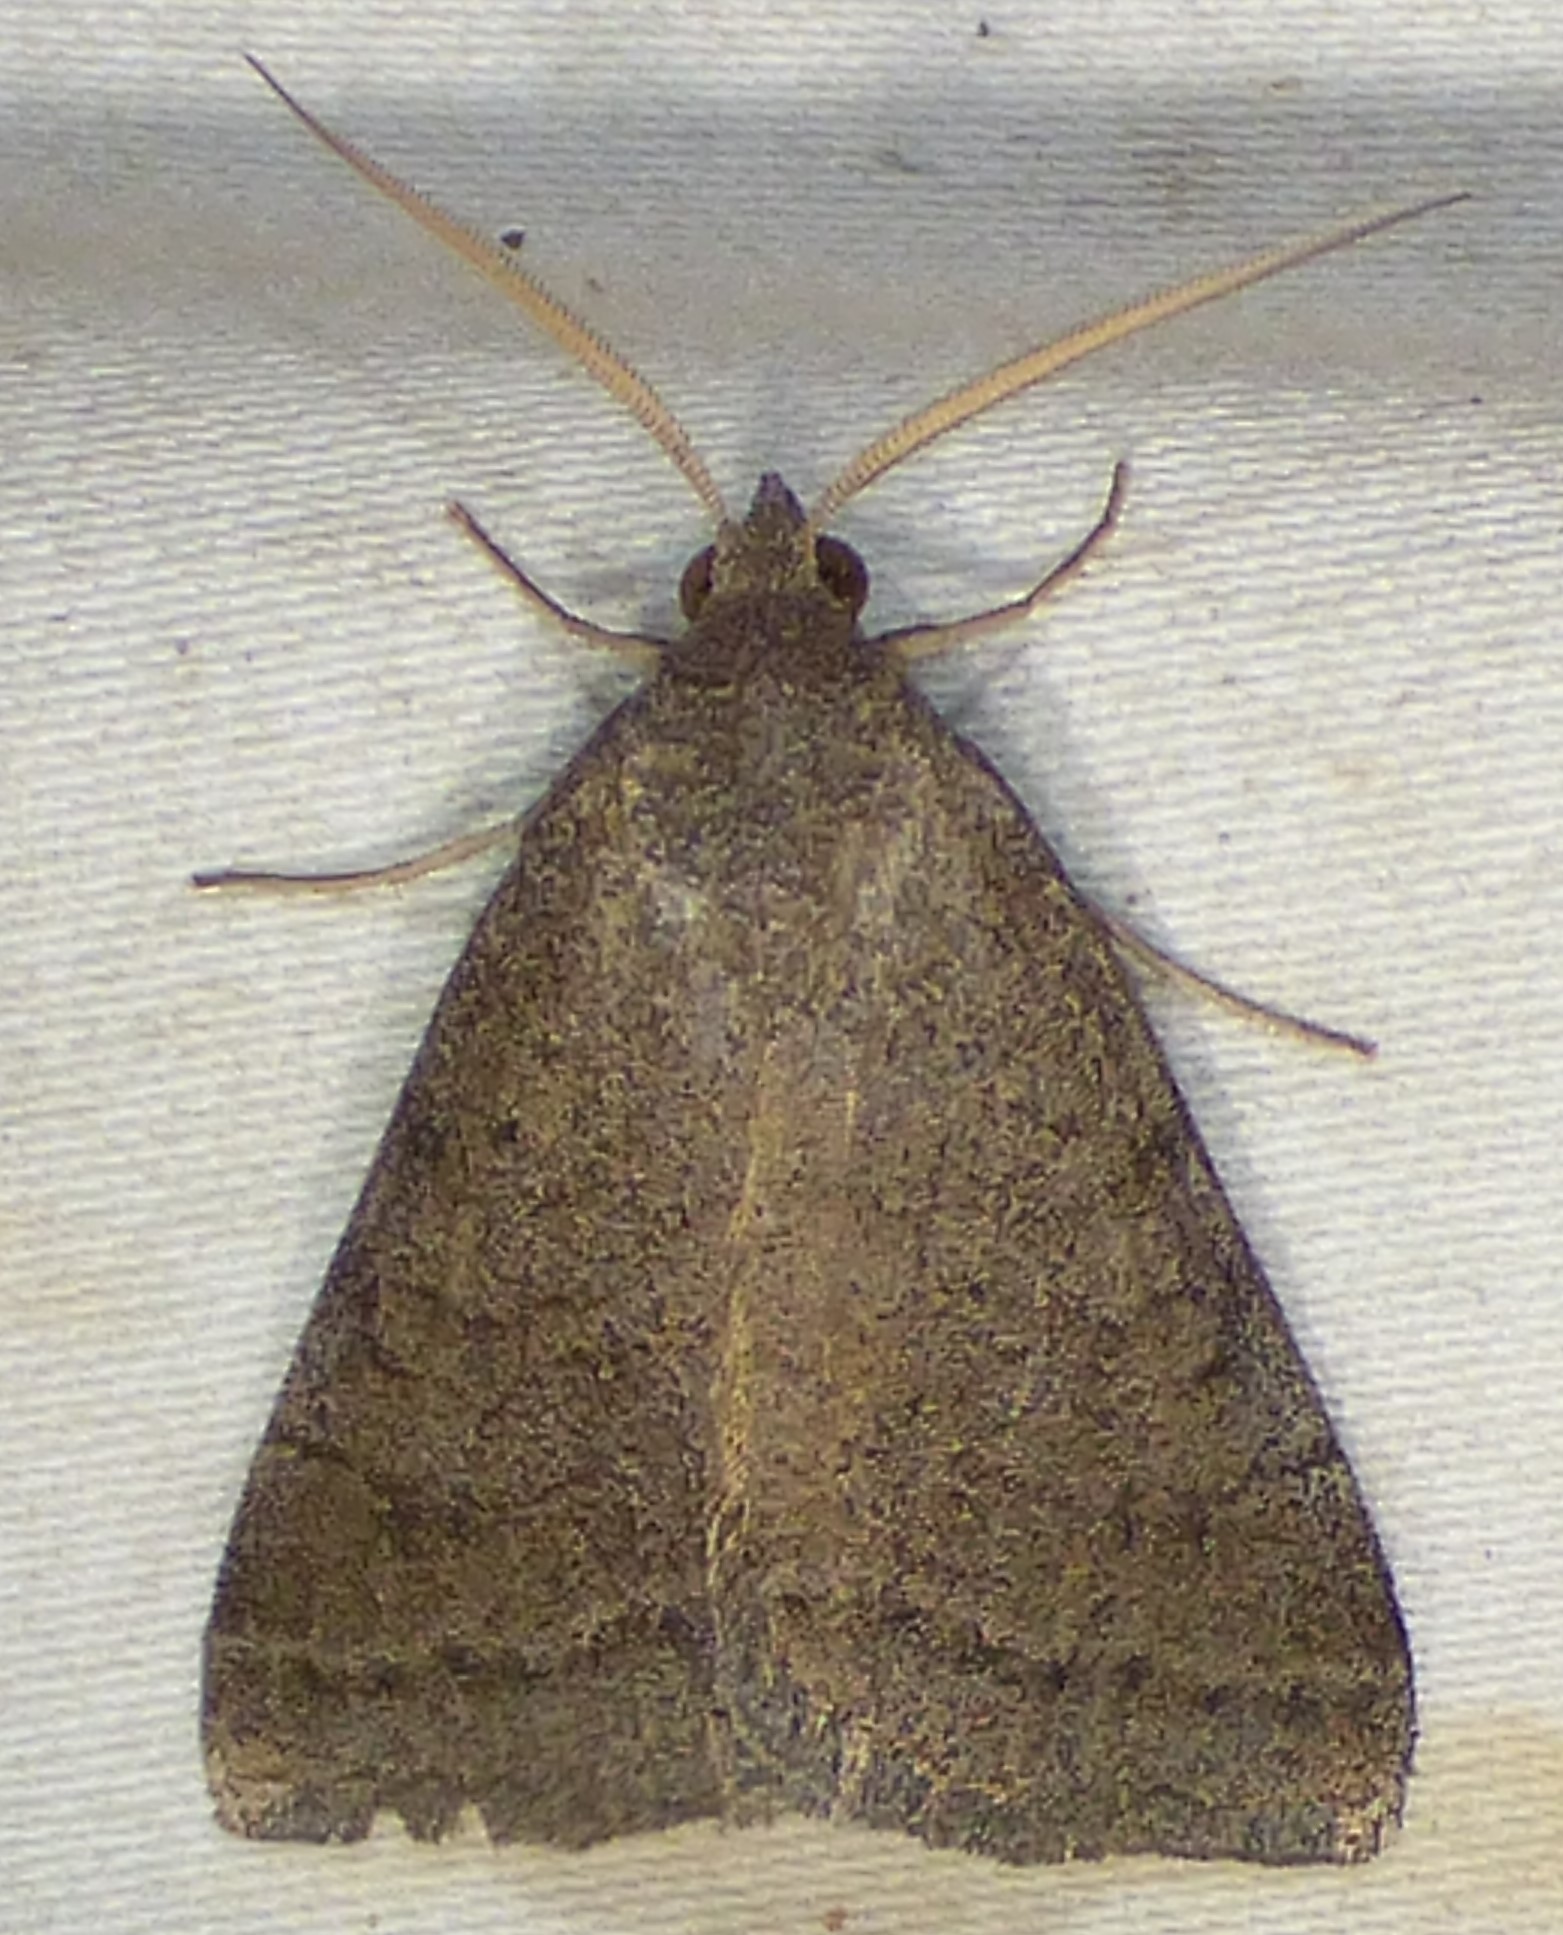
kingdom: Animalia
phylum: Arthropoda
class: Insecta
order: Lepidoptera
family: Erebidae
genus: Caenurgia
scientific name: Caenurgia chloropha
